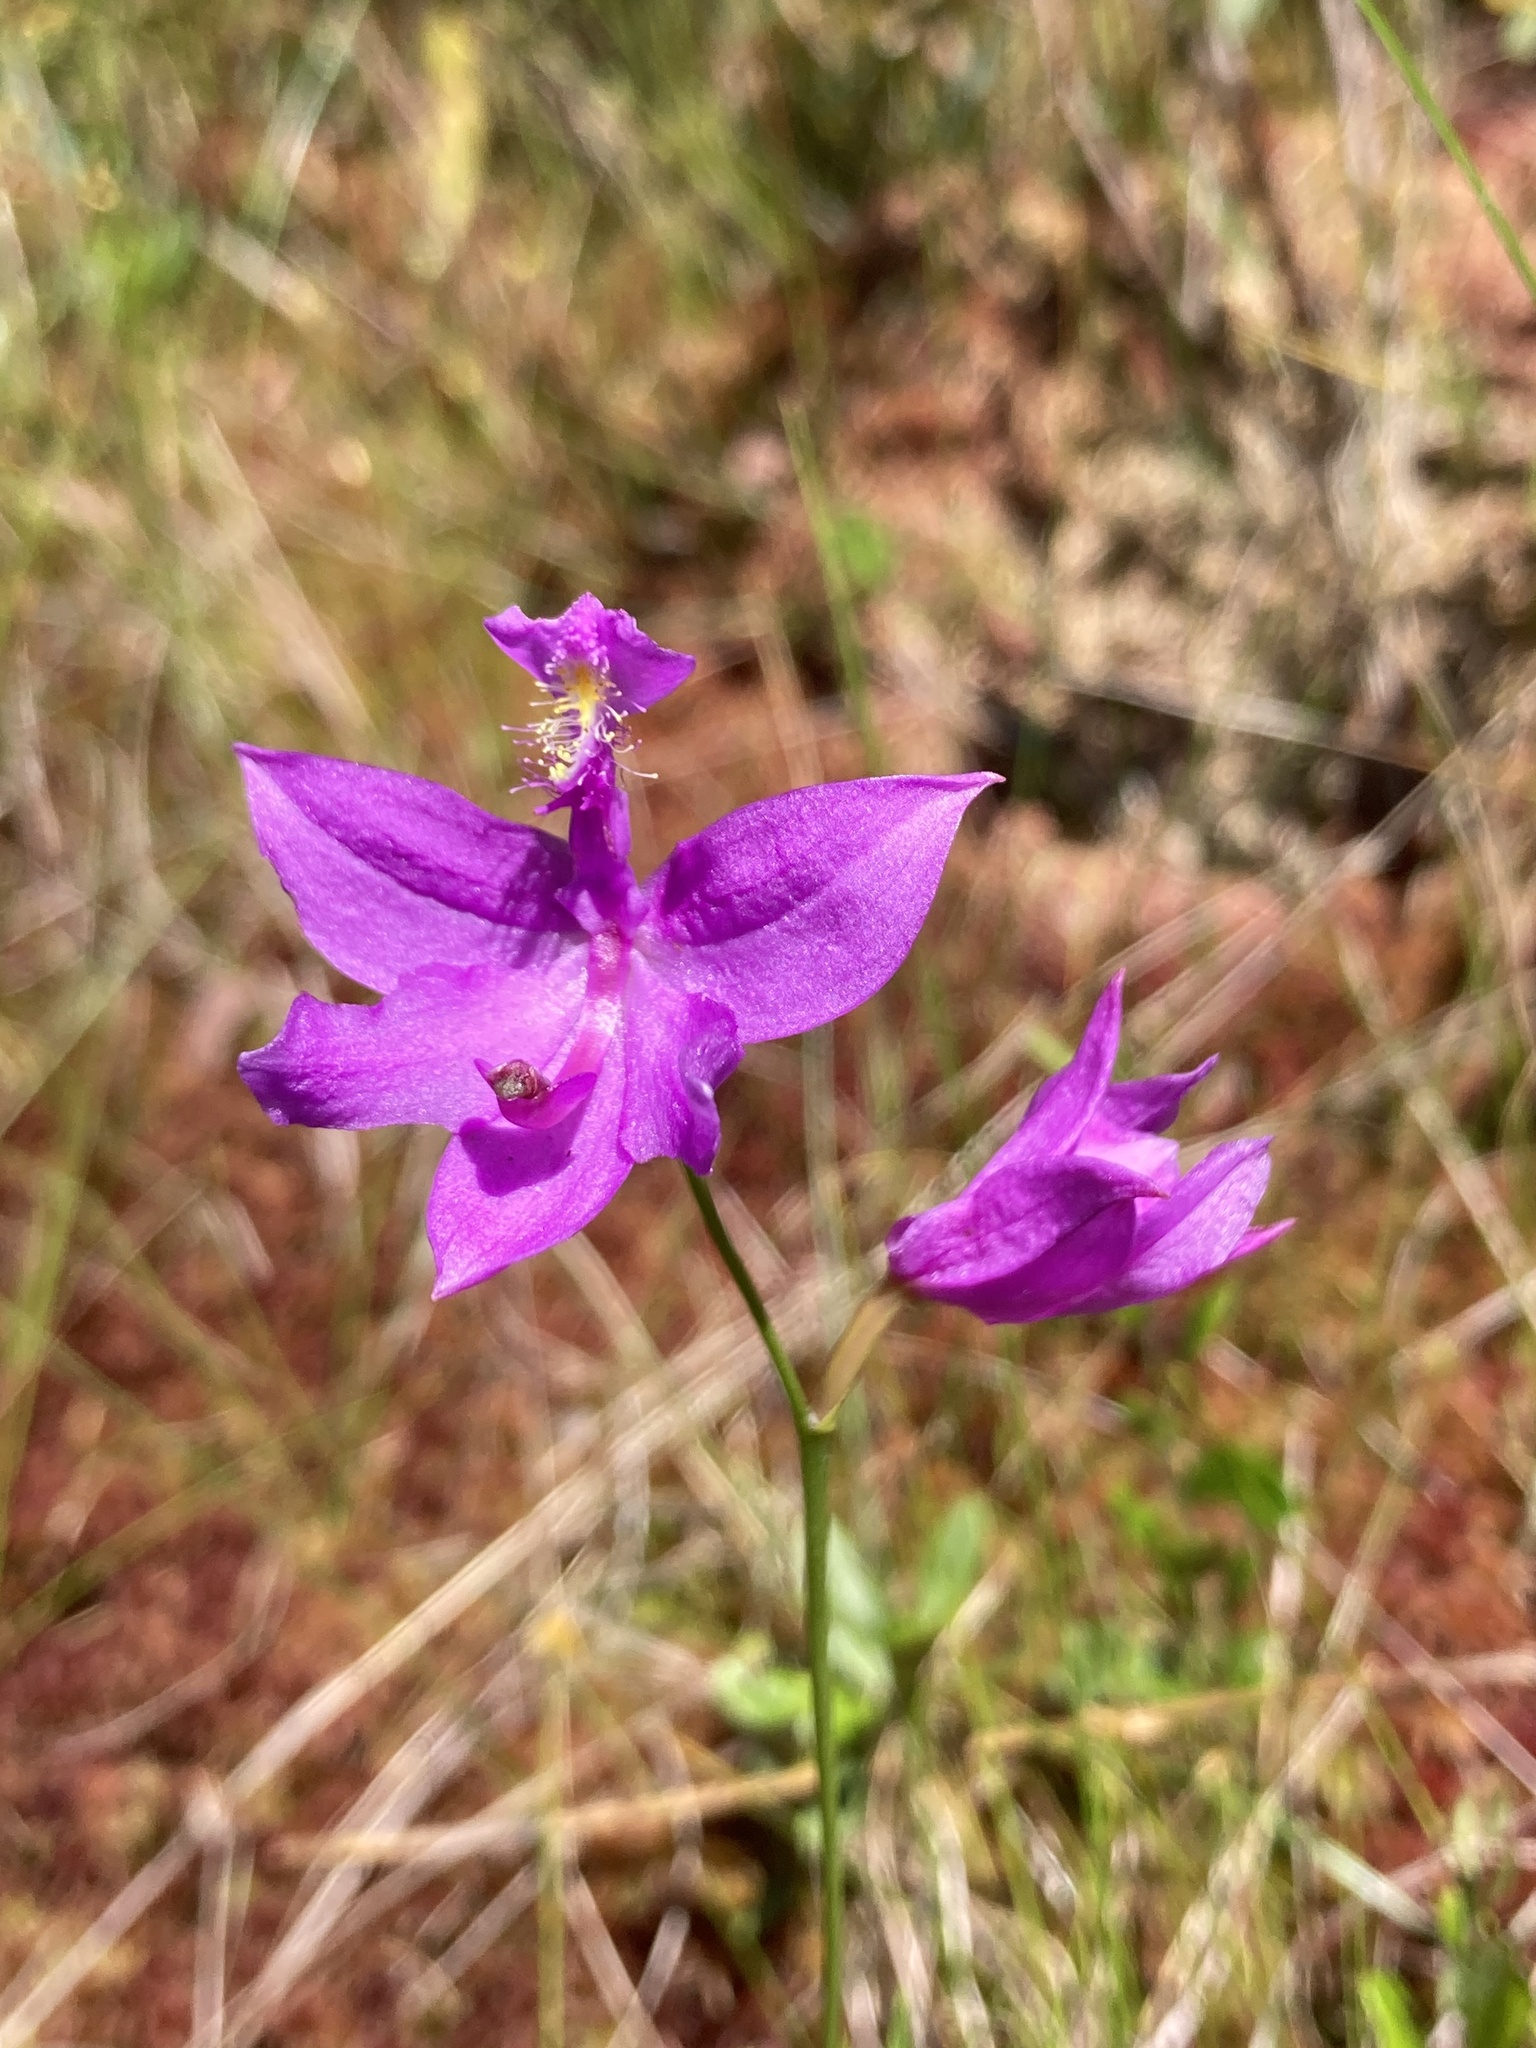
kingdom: Plantae
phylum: Tracheophyta
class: Liliopsida
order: Asparagales
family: Orchidaceae
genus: Calopogon
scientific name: Calopogon tuberosus
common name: Grass-pink
